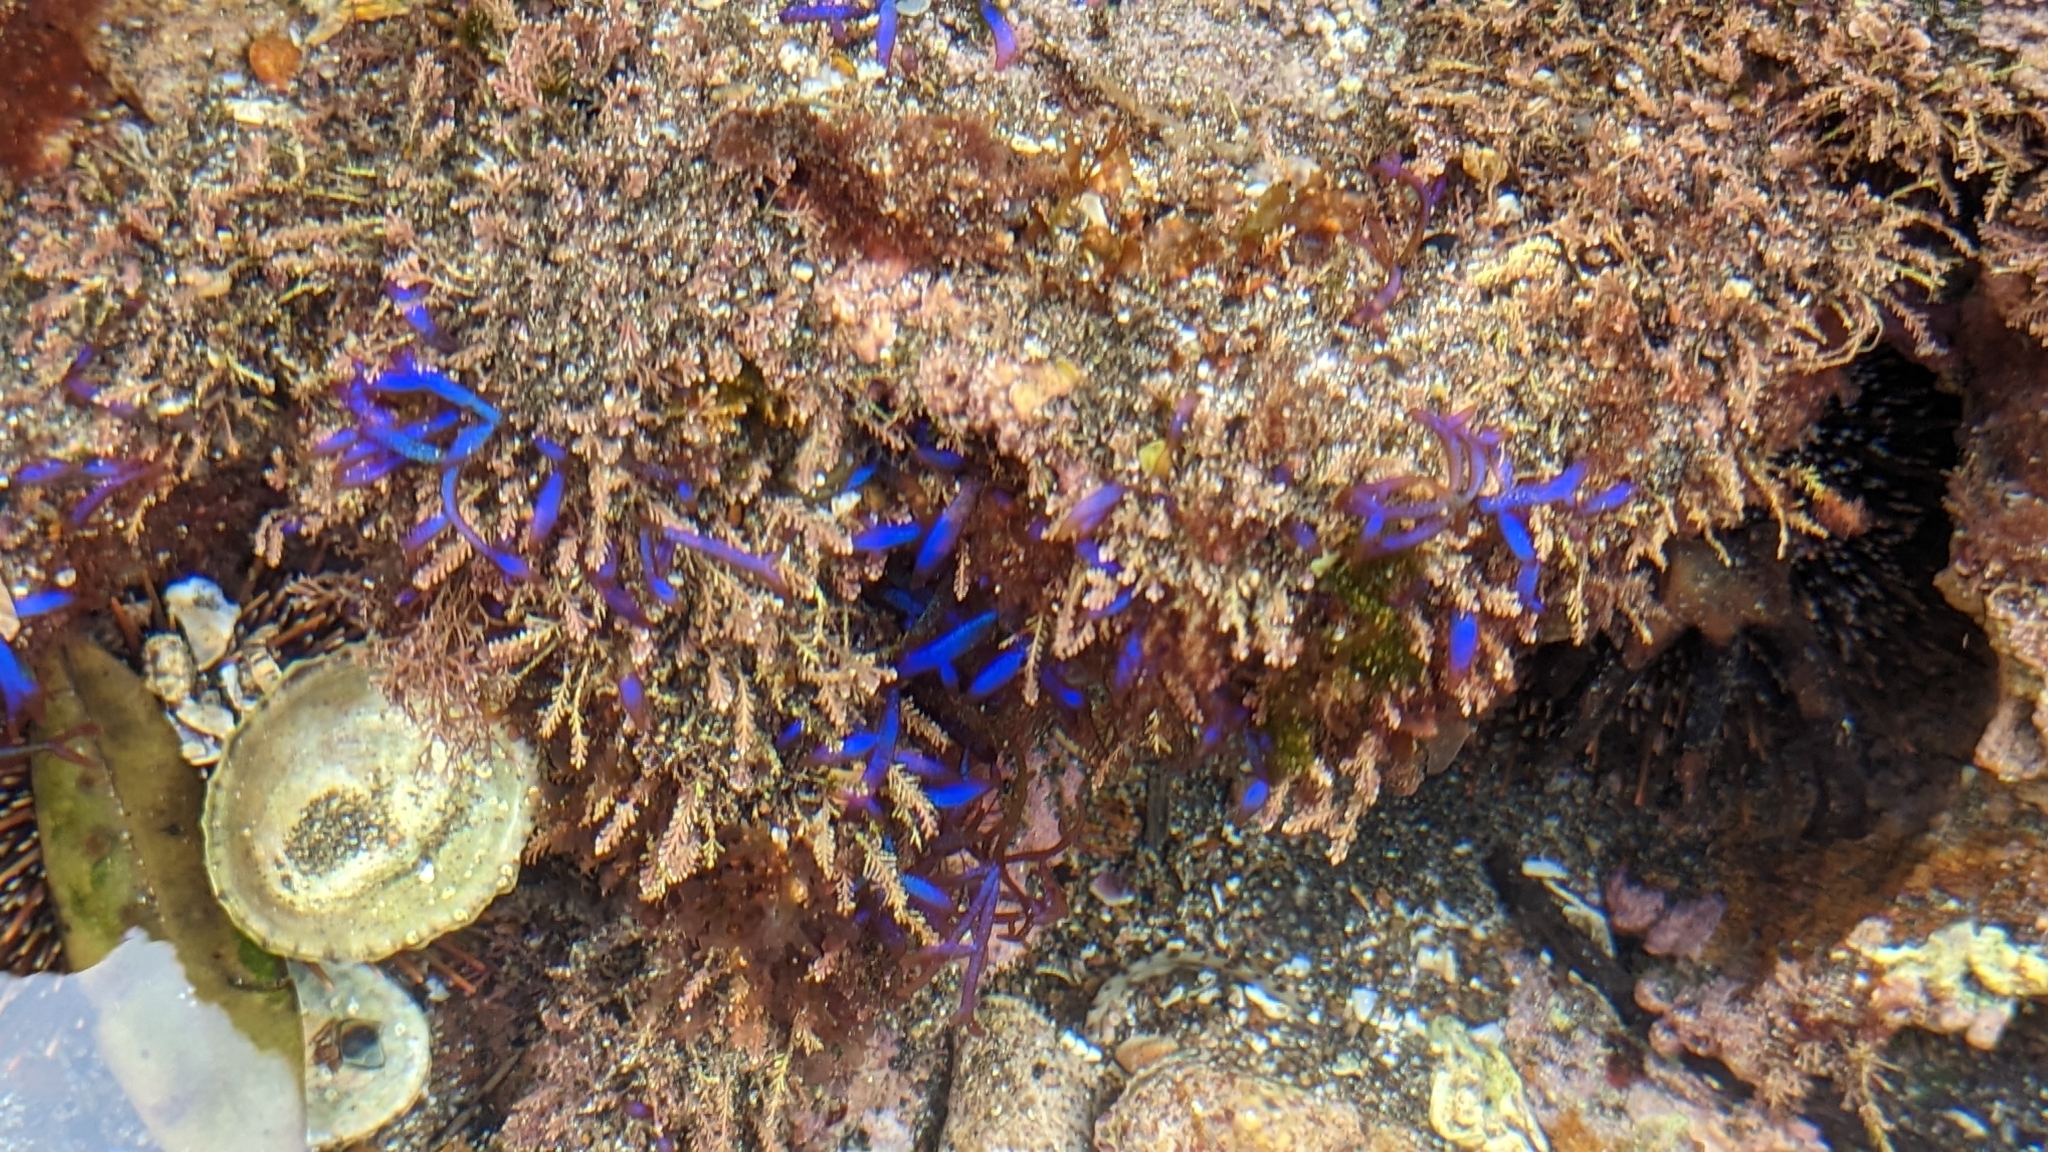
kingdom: Plantae
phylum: Rhodophyta
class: Florideophyceae
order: Rhodymeniales
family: Champiaceae
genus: Champia
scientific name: Champia laingii
